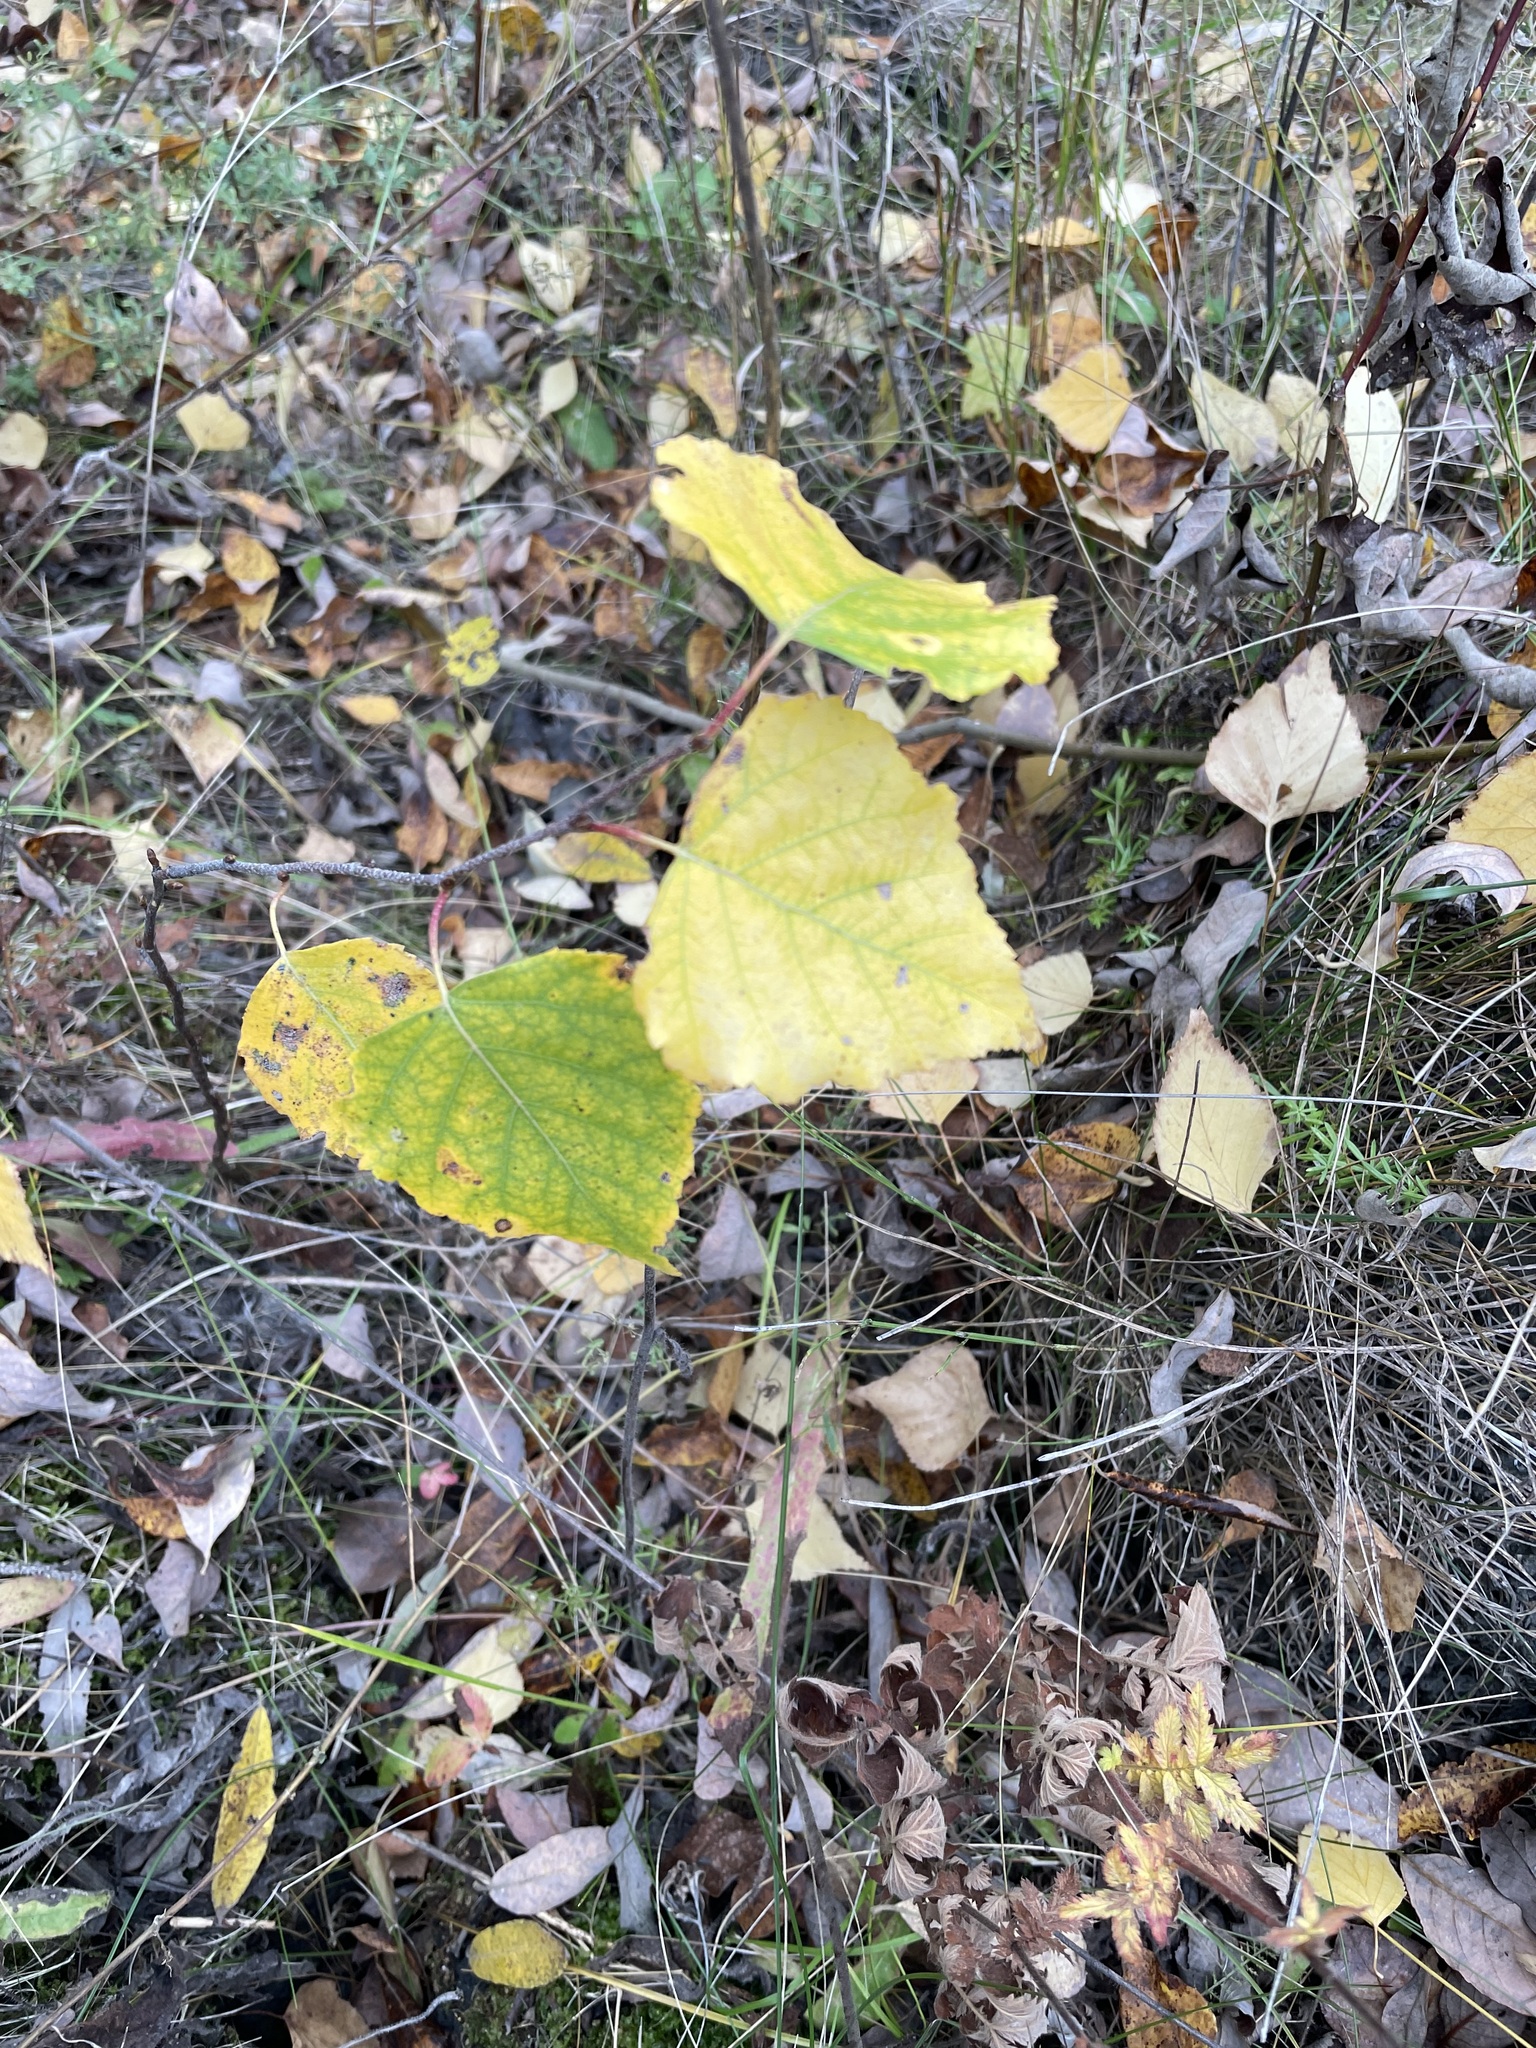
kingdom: Plantae
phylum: Tracheophyta
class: Magnoliopsida
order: Fagales
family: Betulaceae
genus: Betula
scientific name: Betula pendula
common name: Silver birch
